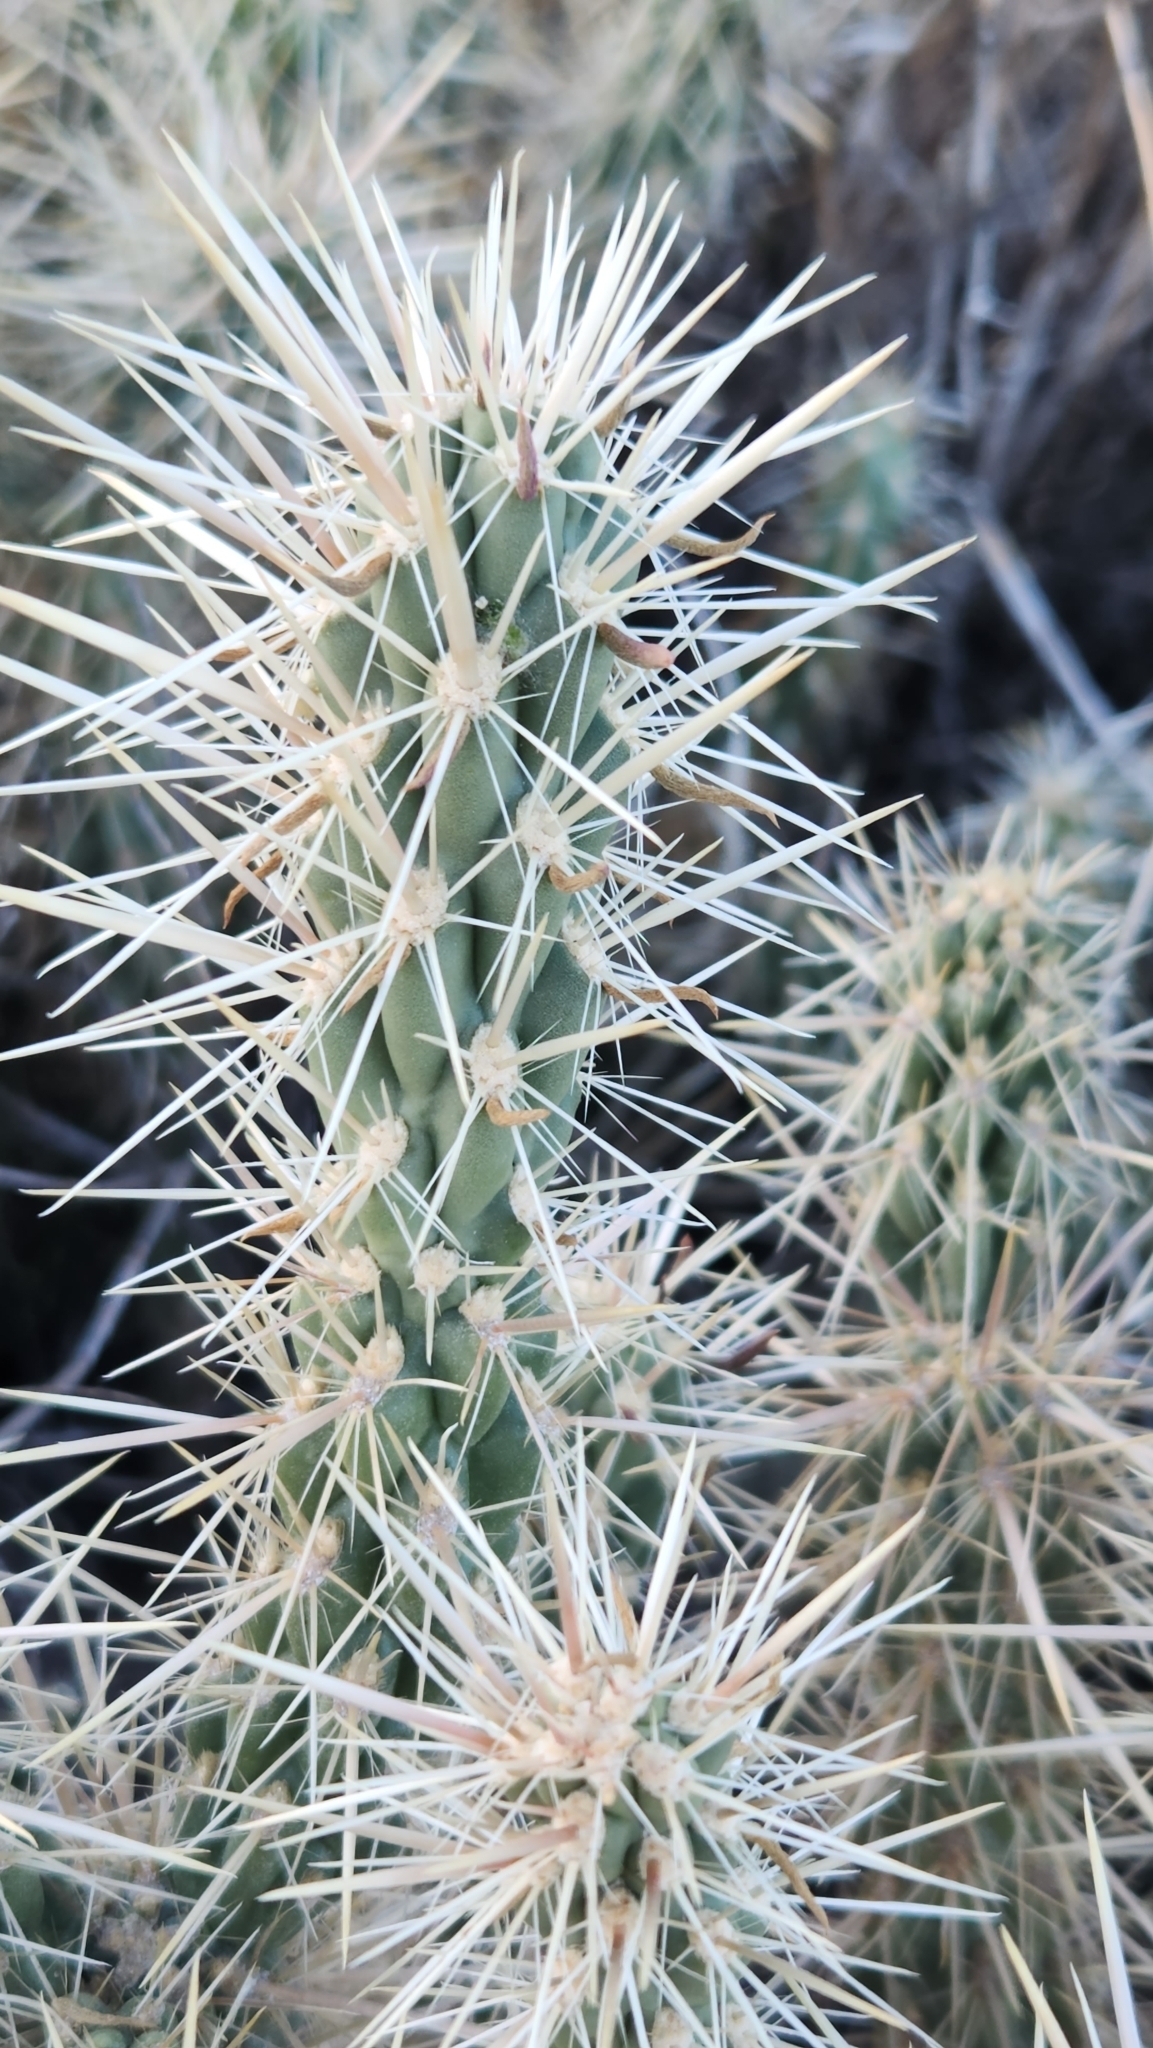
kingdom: Plantae
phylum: Tracheophyta
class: Magnoliopsida
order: Caryophyllales
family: Cactaceae
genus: Cylindropuntia
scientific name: Cylindropuntia ganderi
